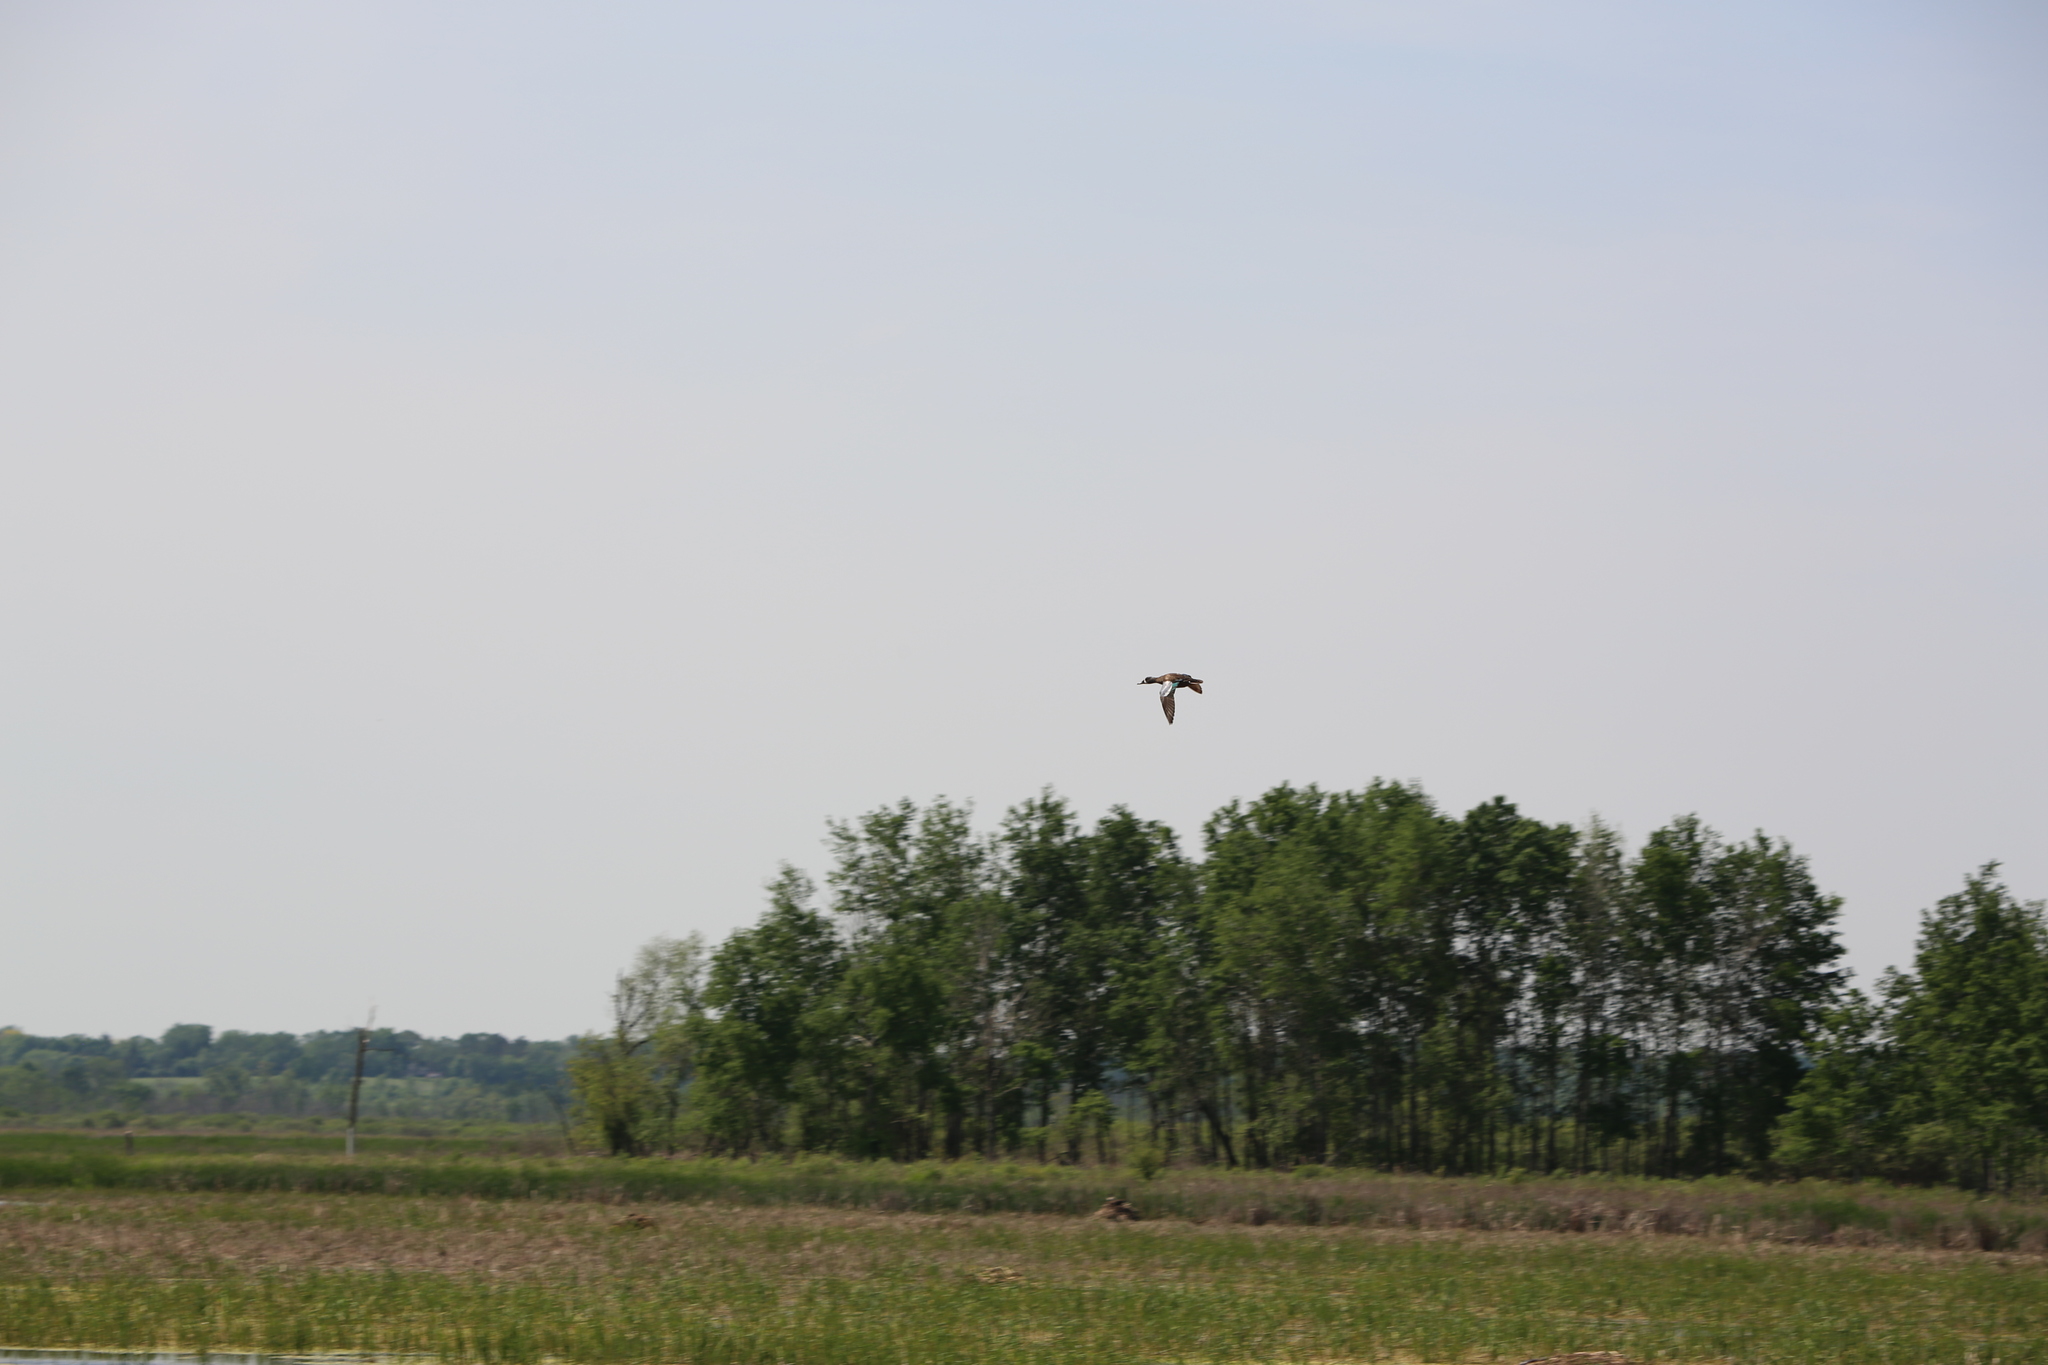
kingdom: Animalia
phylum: Chordata
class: Aves
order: Anseriformes
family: Anatidae
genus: Spatula
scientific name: Spatula discors
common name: Blue-winged teal
